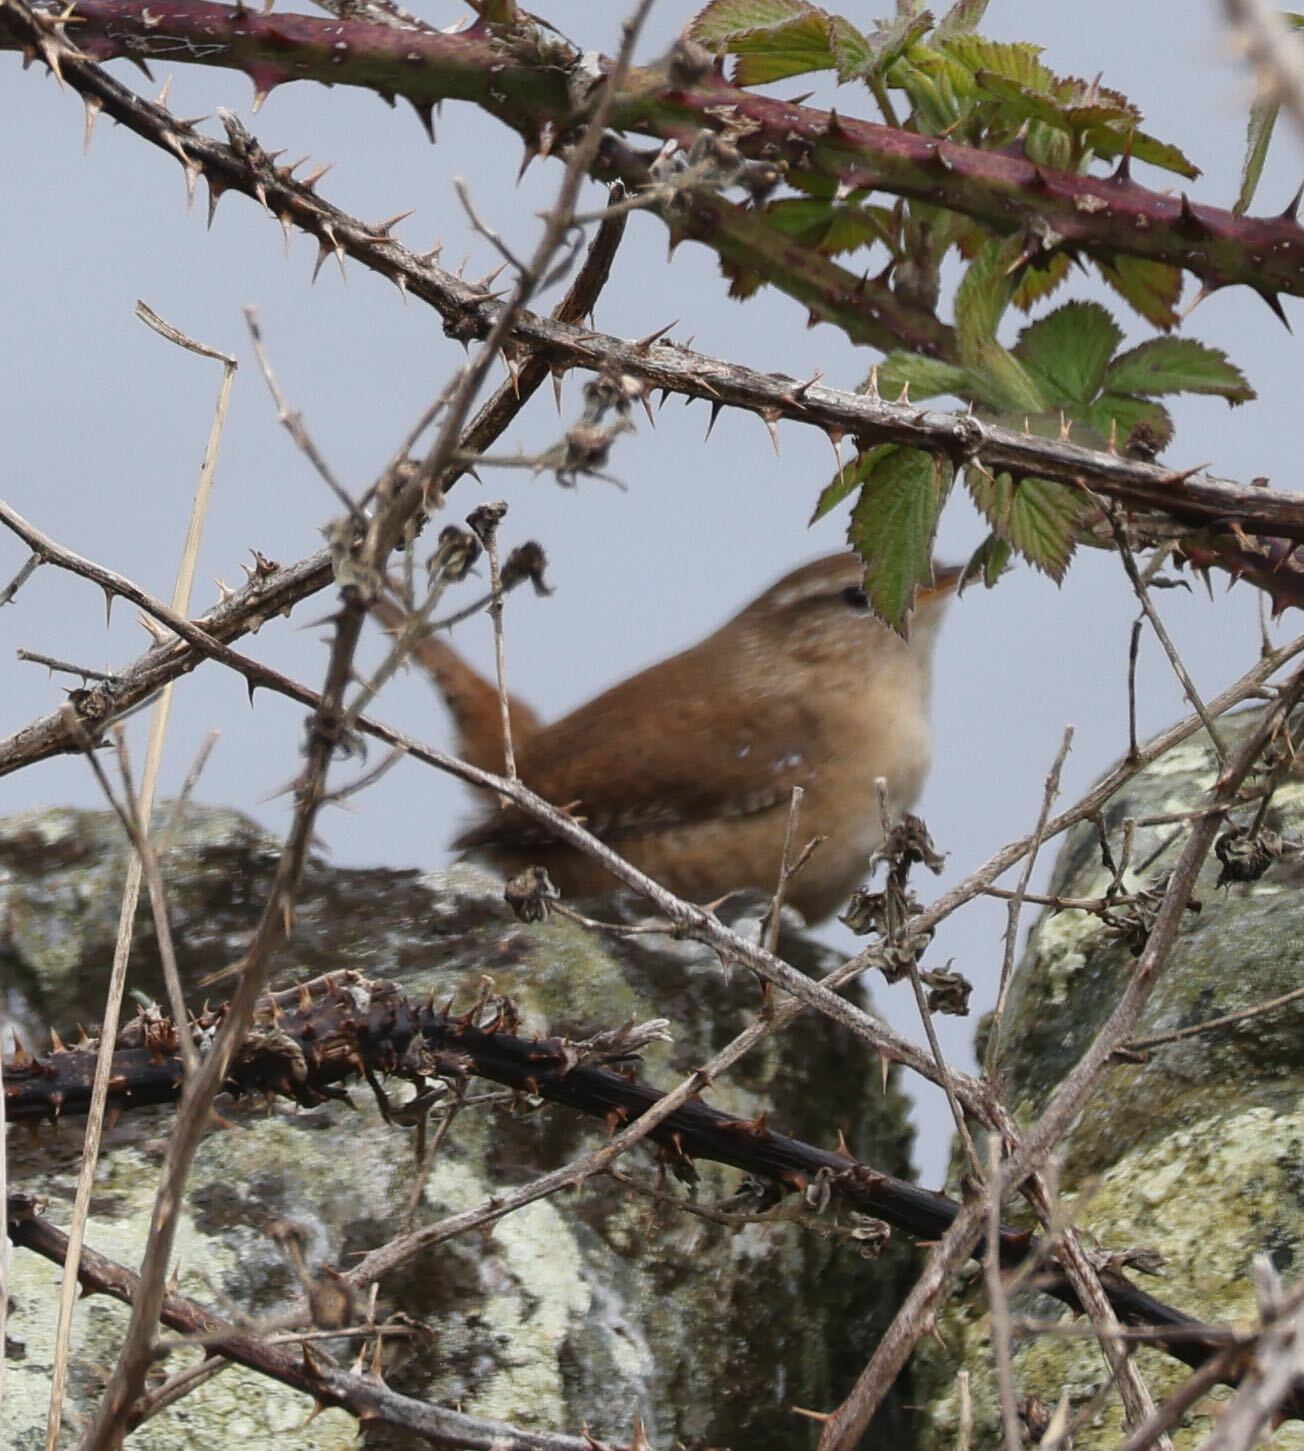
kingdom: Animalia
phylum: Chordata
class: Aves
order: Passeriformes
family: Troglodytidae
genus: Troglodytes
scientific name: Troglodytes troglodytes
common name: Eurasian wren
